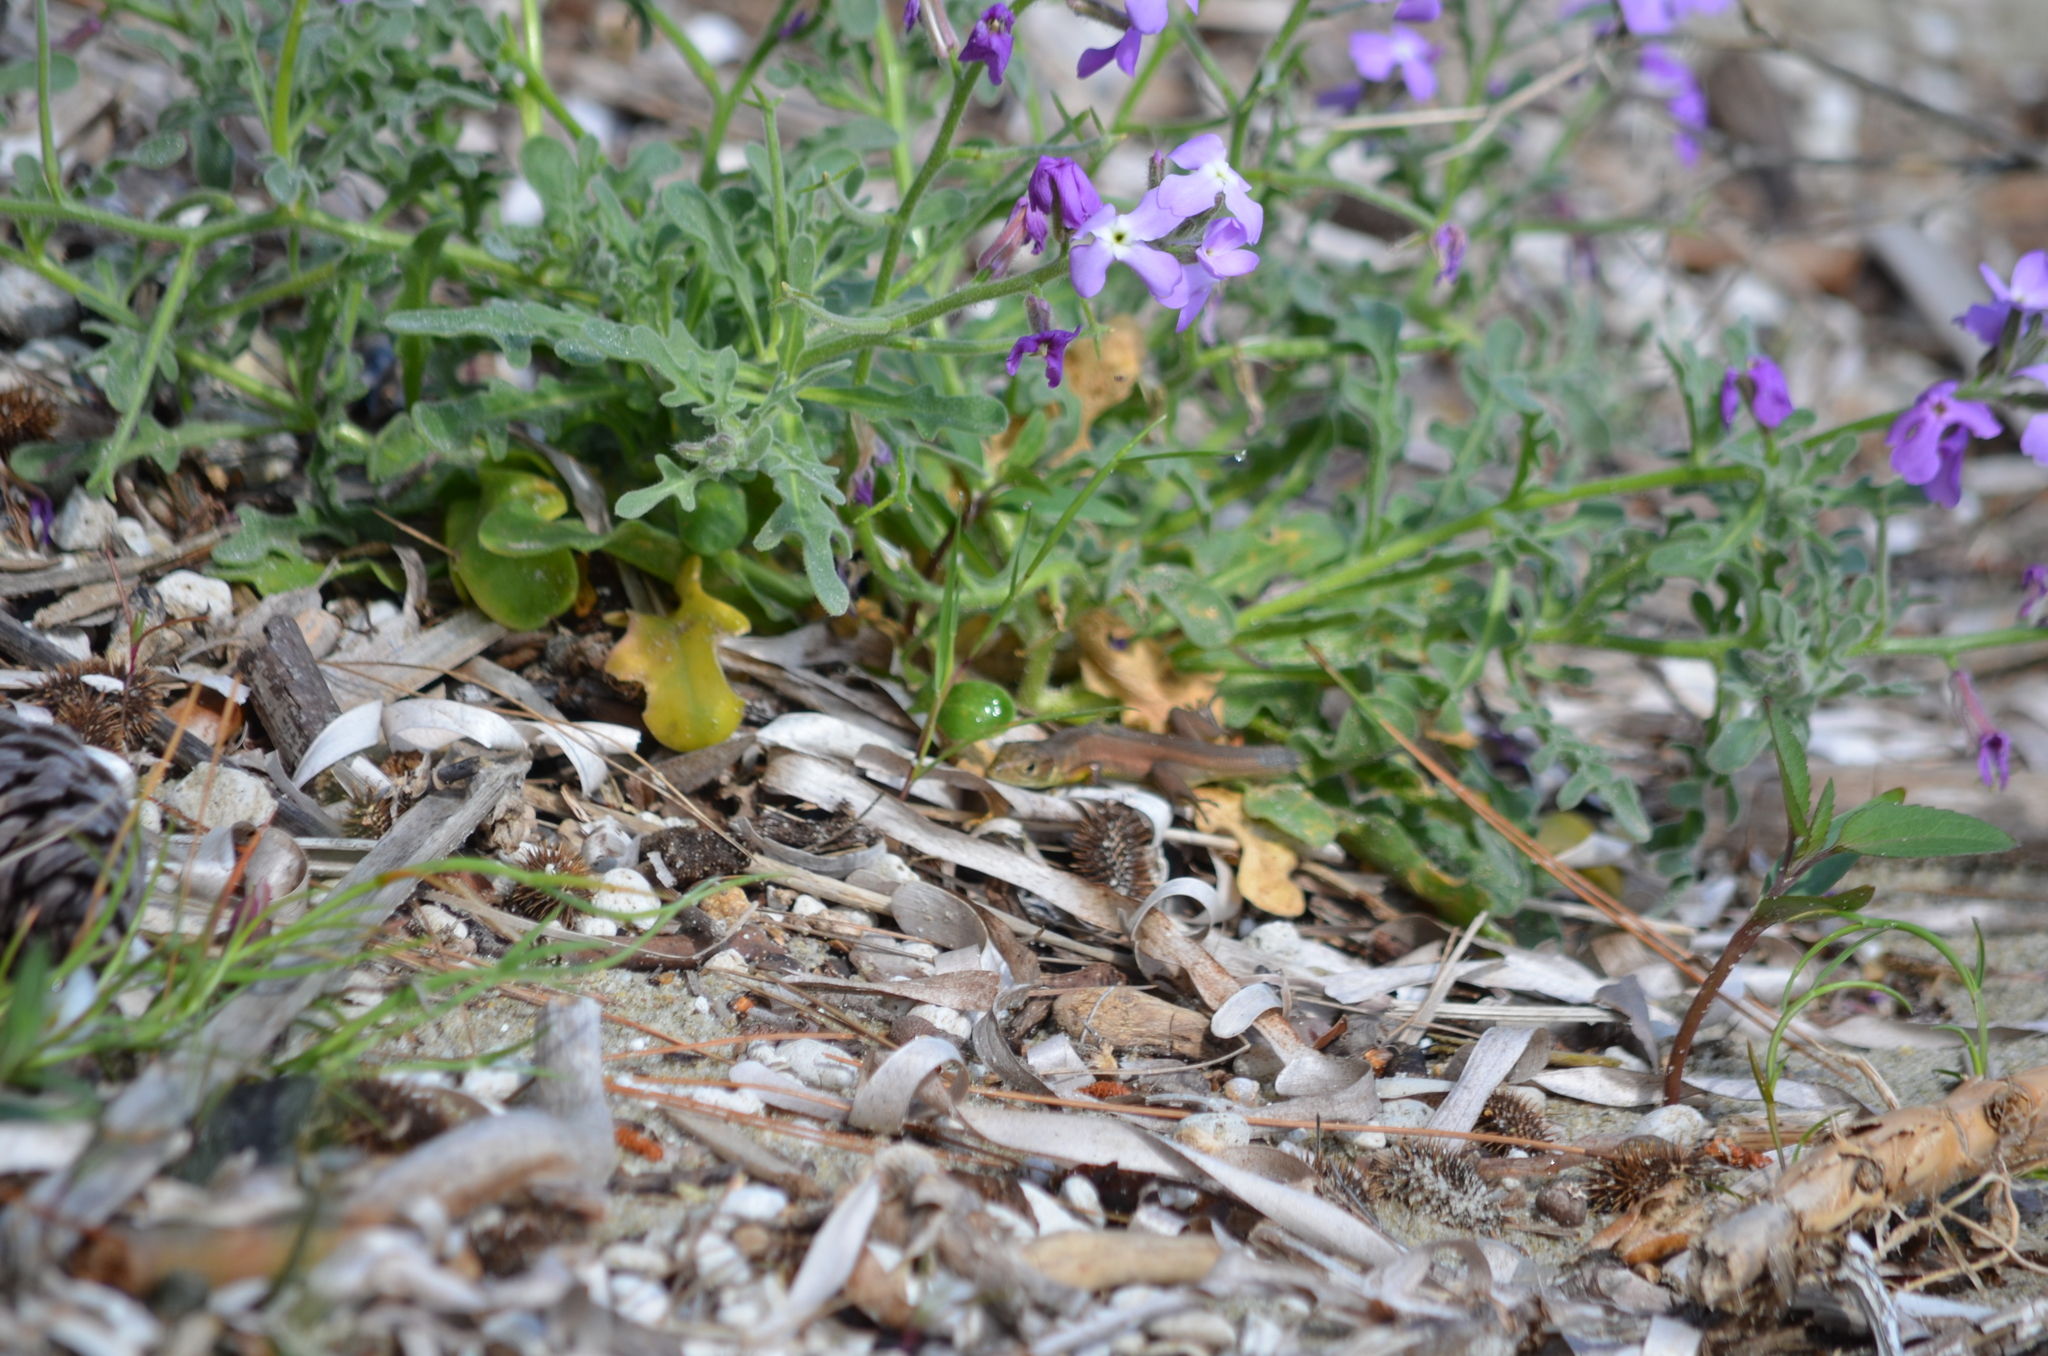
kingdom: Animalia
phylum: Chordata
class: Squamata
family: Lacertidae
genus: Lacerta
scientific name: Lacerta viridis
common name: European green lizard
